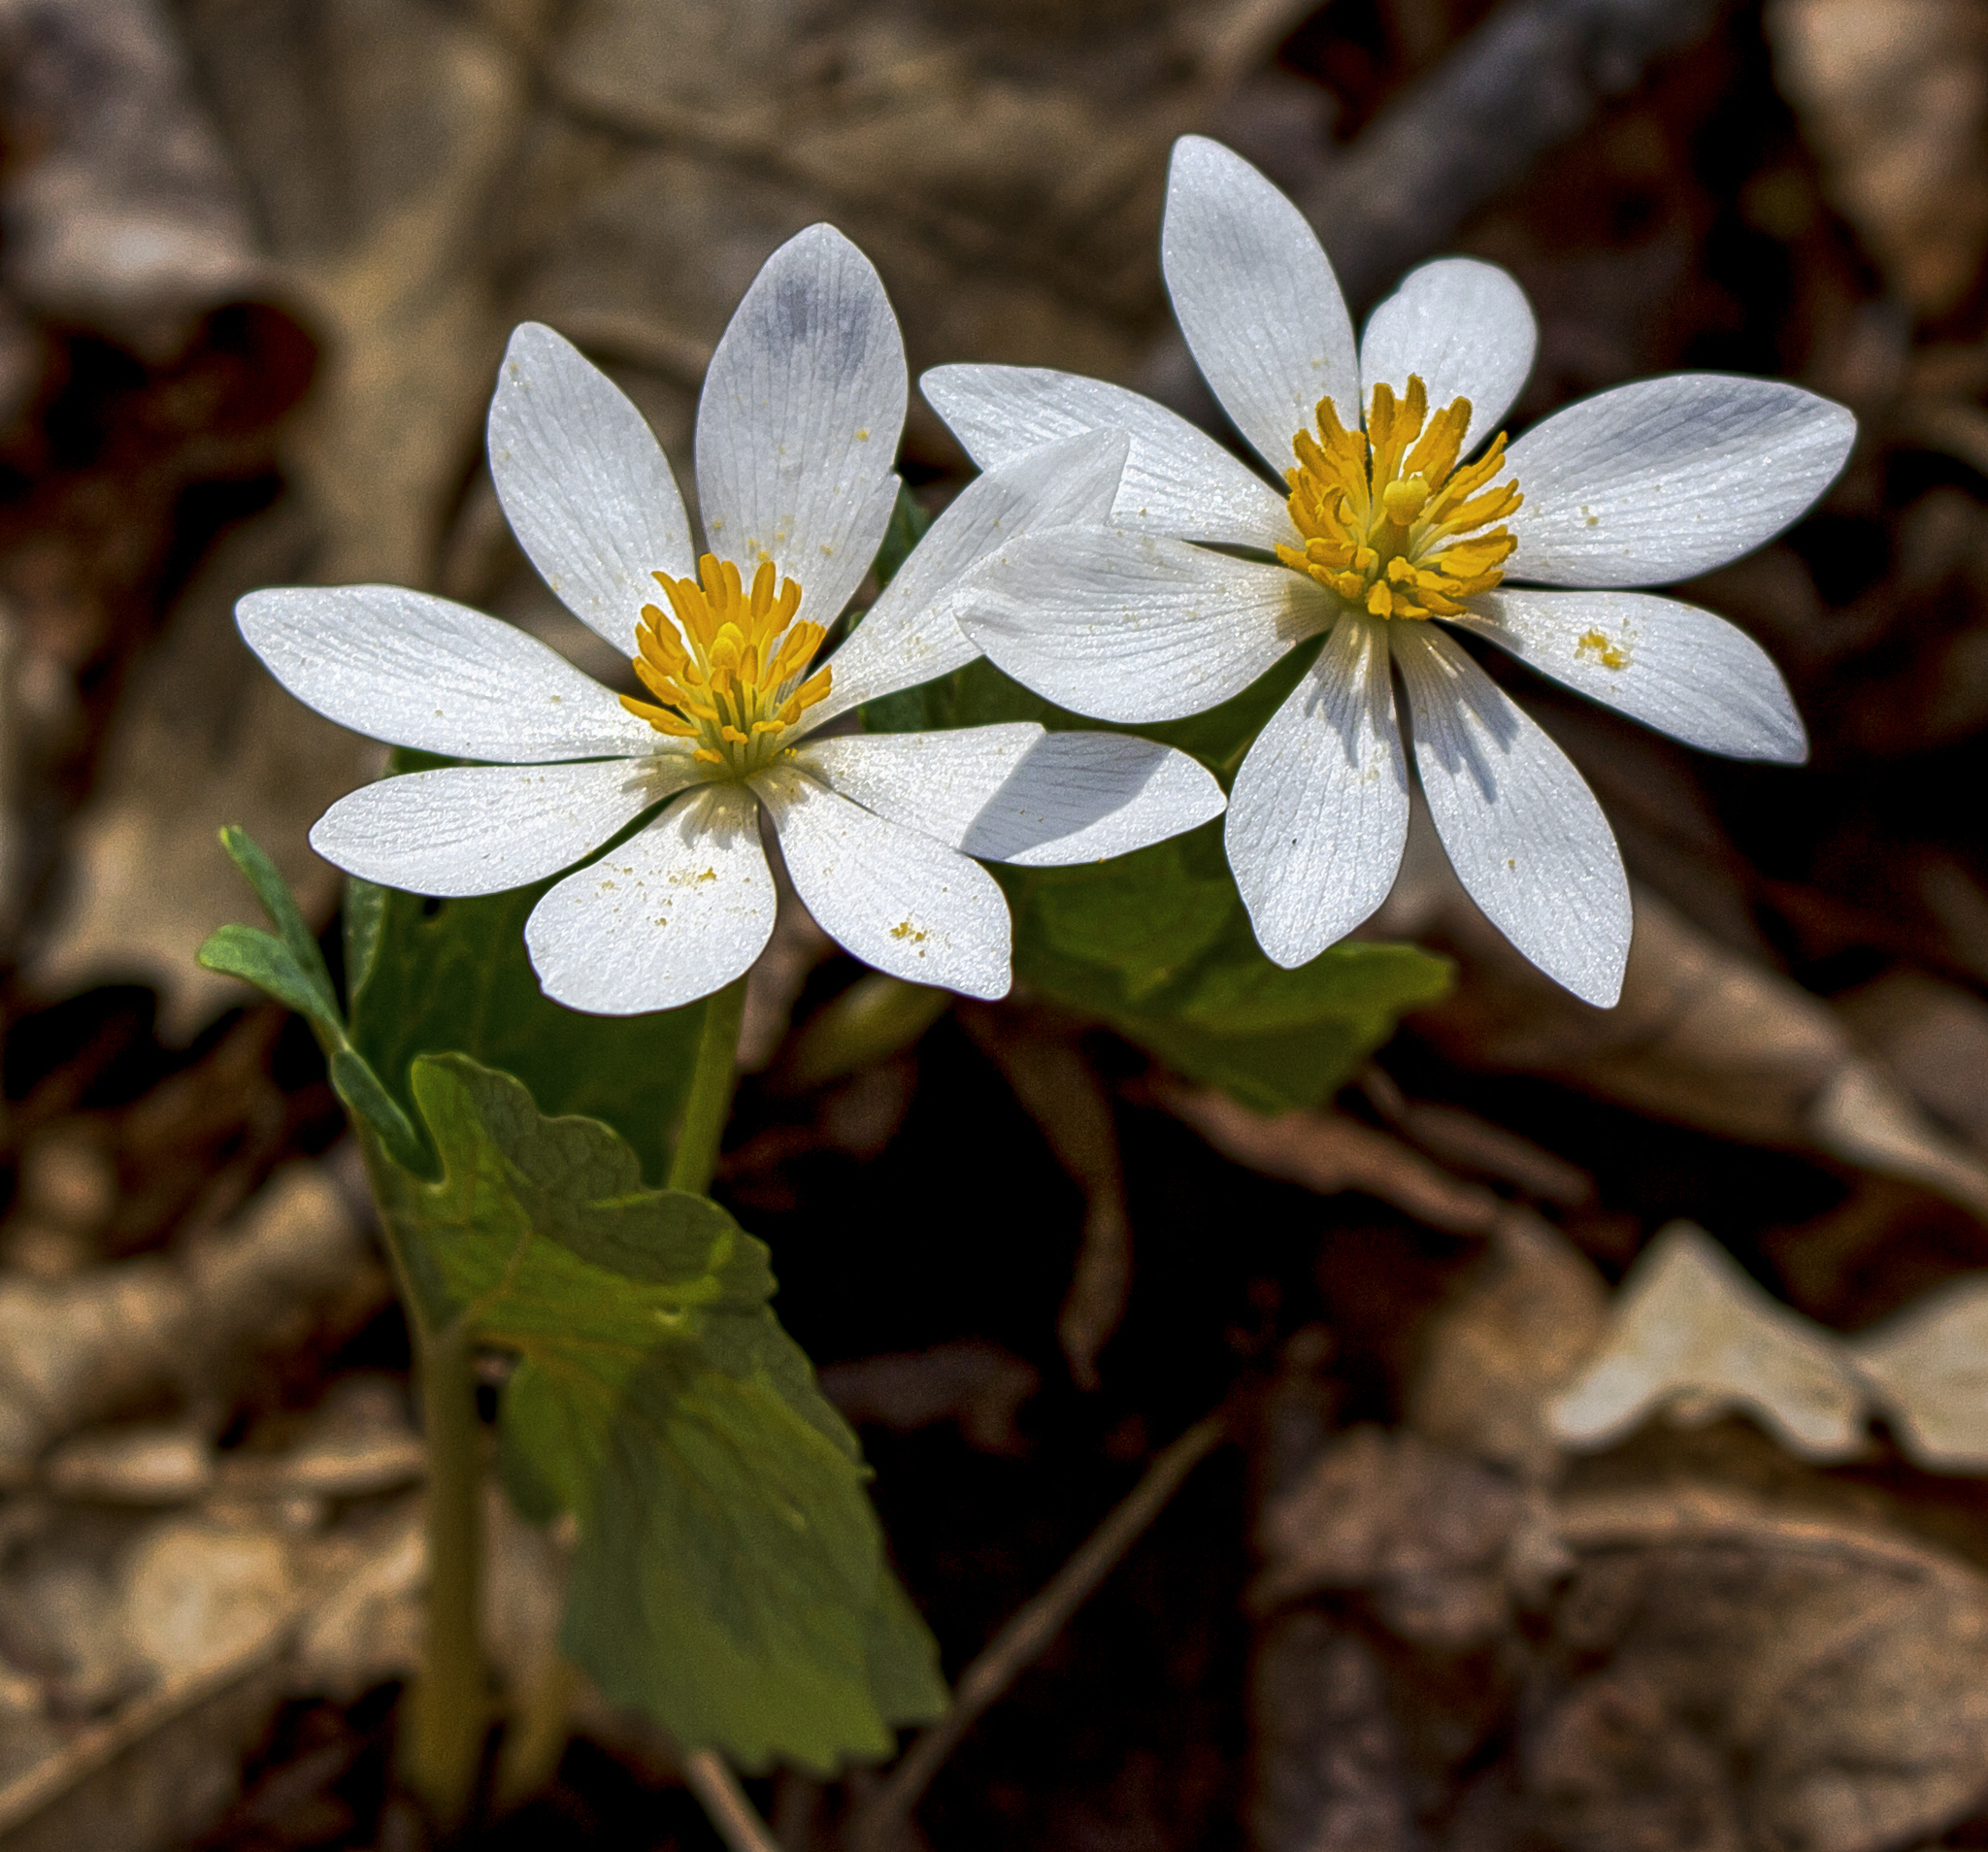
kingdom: Plantae
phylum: Tracheophyta
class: Magnoliopsida
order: Ranunculales
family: Papaveraceae
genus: Sanguinaria
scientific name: Sanguinaria canadensis
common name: Bloodroot
